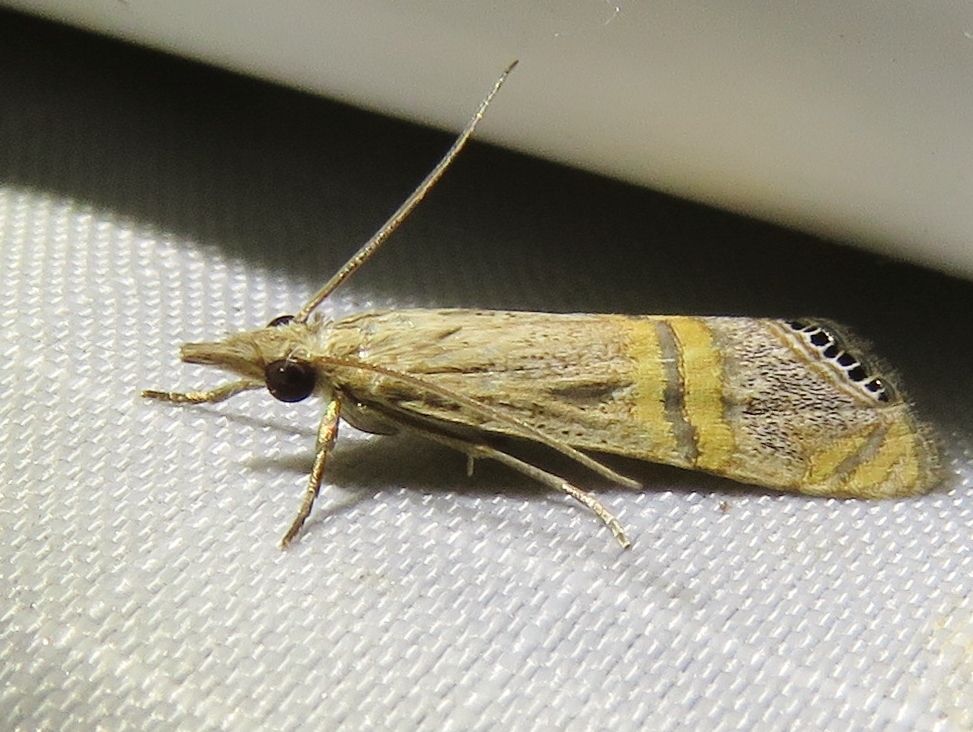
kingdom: Animalia
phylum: Arthropoda
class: Insecta
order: Lepidoptera
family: Crambidae
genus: Euchromius
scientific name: Euchromius ocellea
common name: Necklace veneer moth
